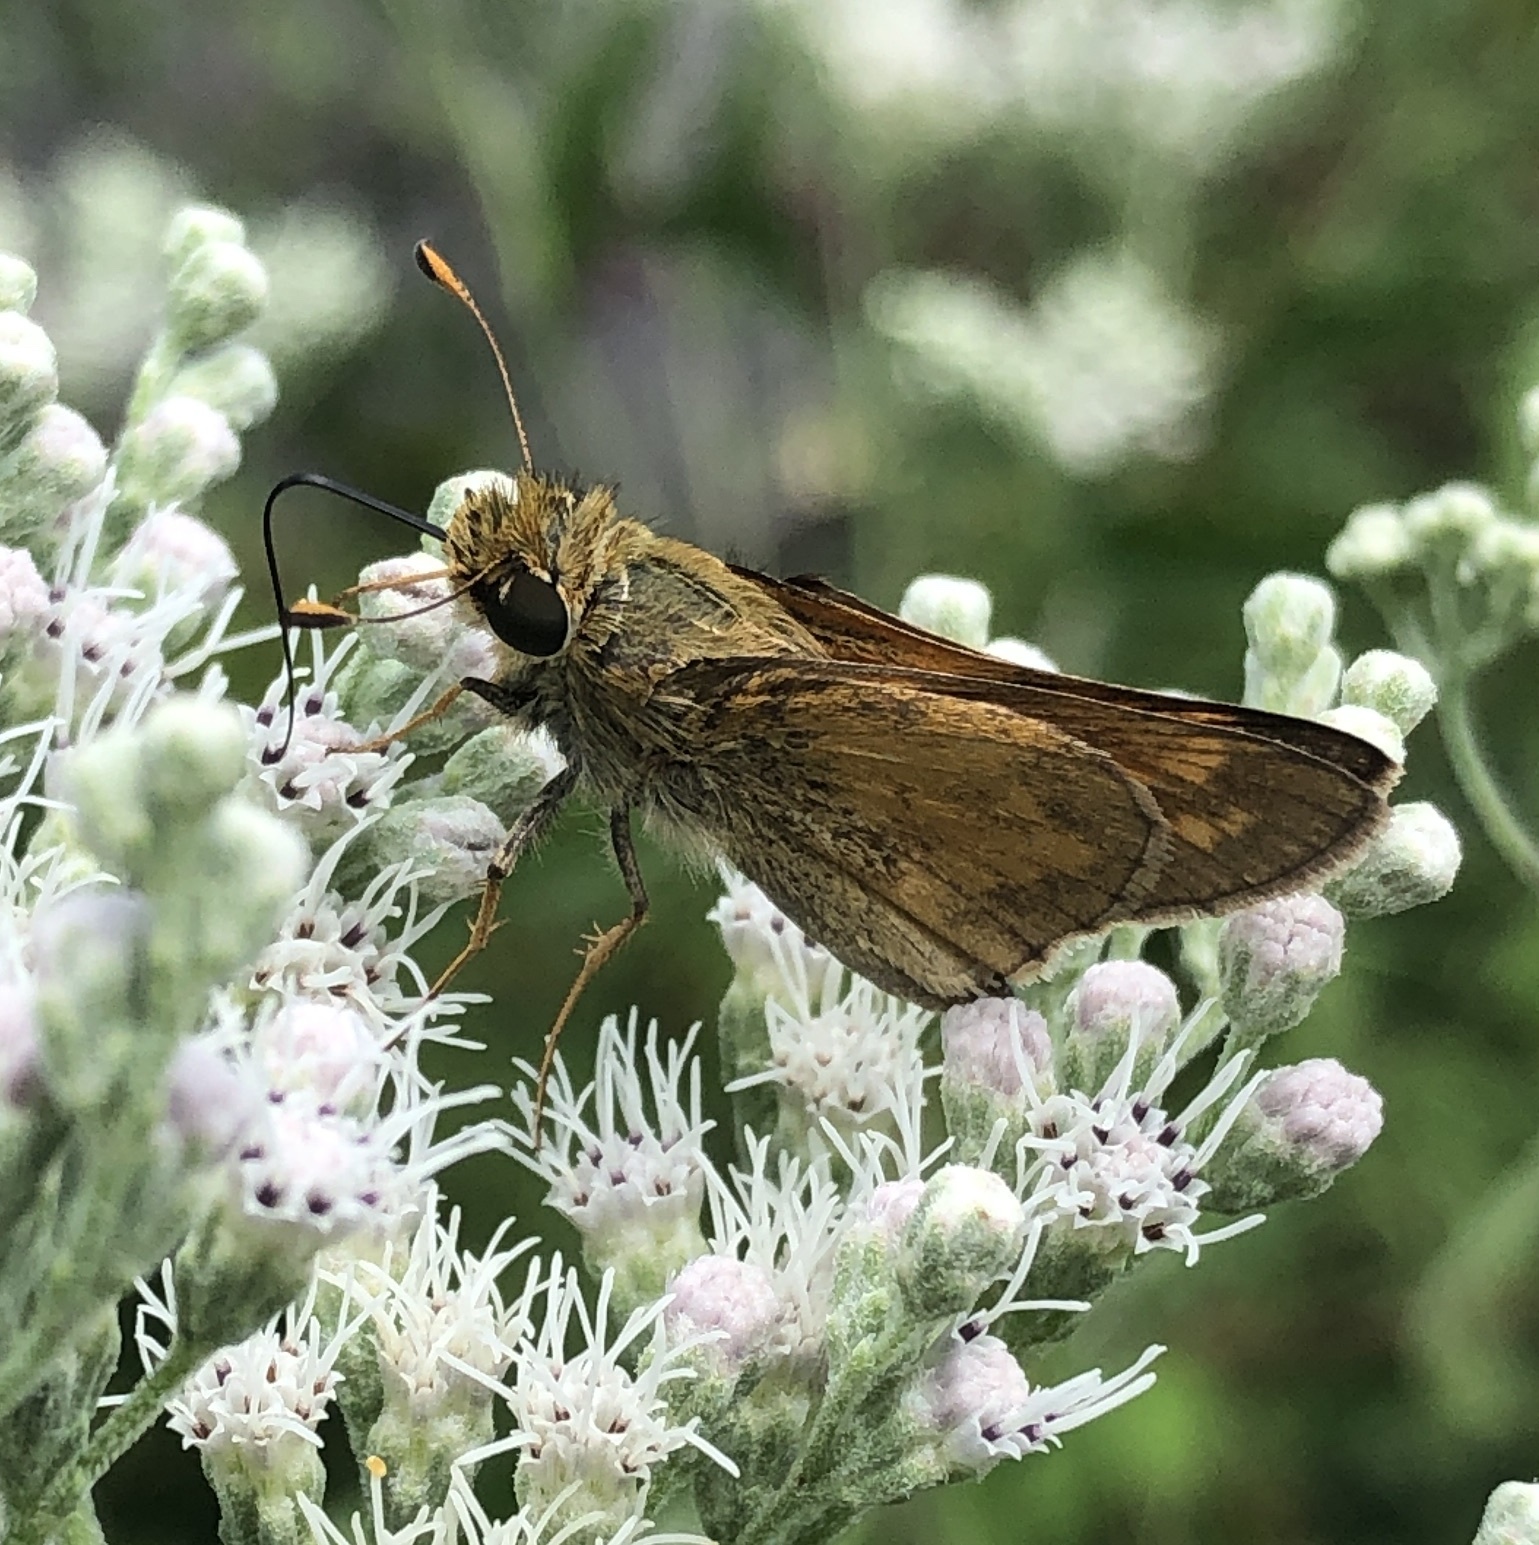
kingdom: Animalia
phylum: Arthropoda
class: Insecta
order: Lepidoptera
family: Hesperiidae
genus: Atalopedes
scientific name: Atalopedes
